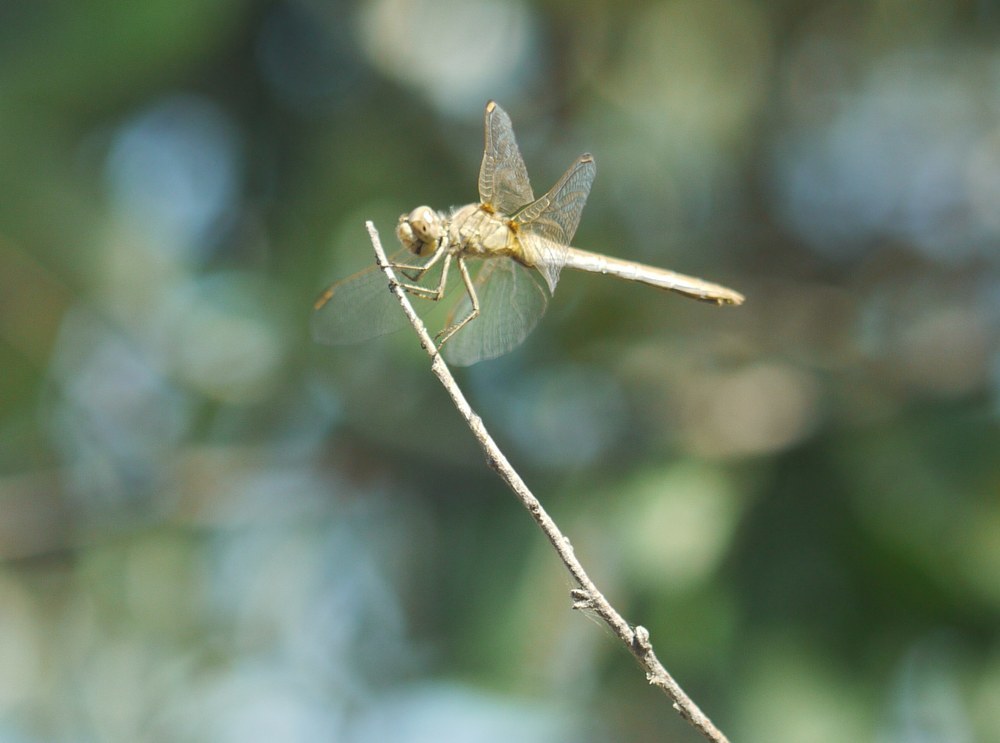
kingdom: Animalia
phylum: Arthropoda
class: Insecta
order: Odonata
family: Libellulidae
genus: Sympetrum
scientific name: Sympetrum striolatum
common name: Common darter
